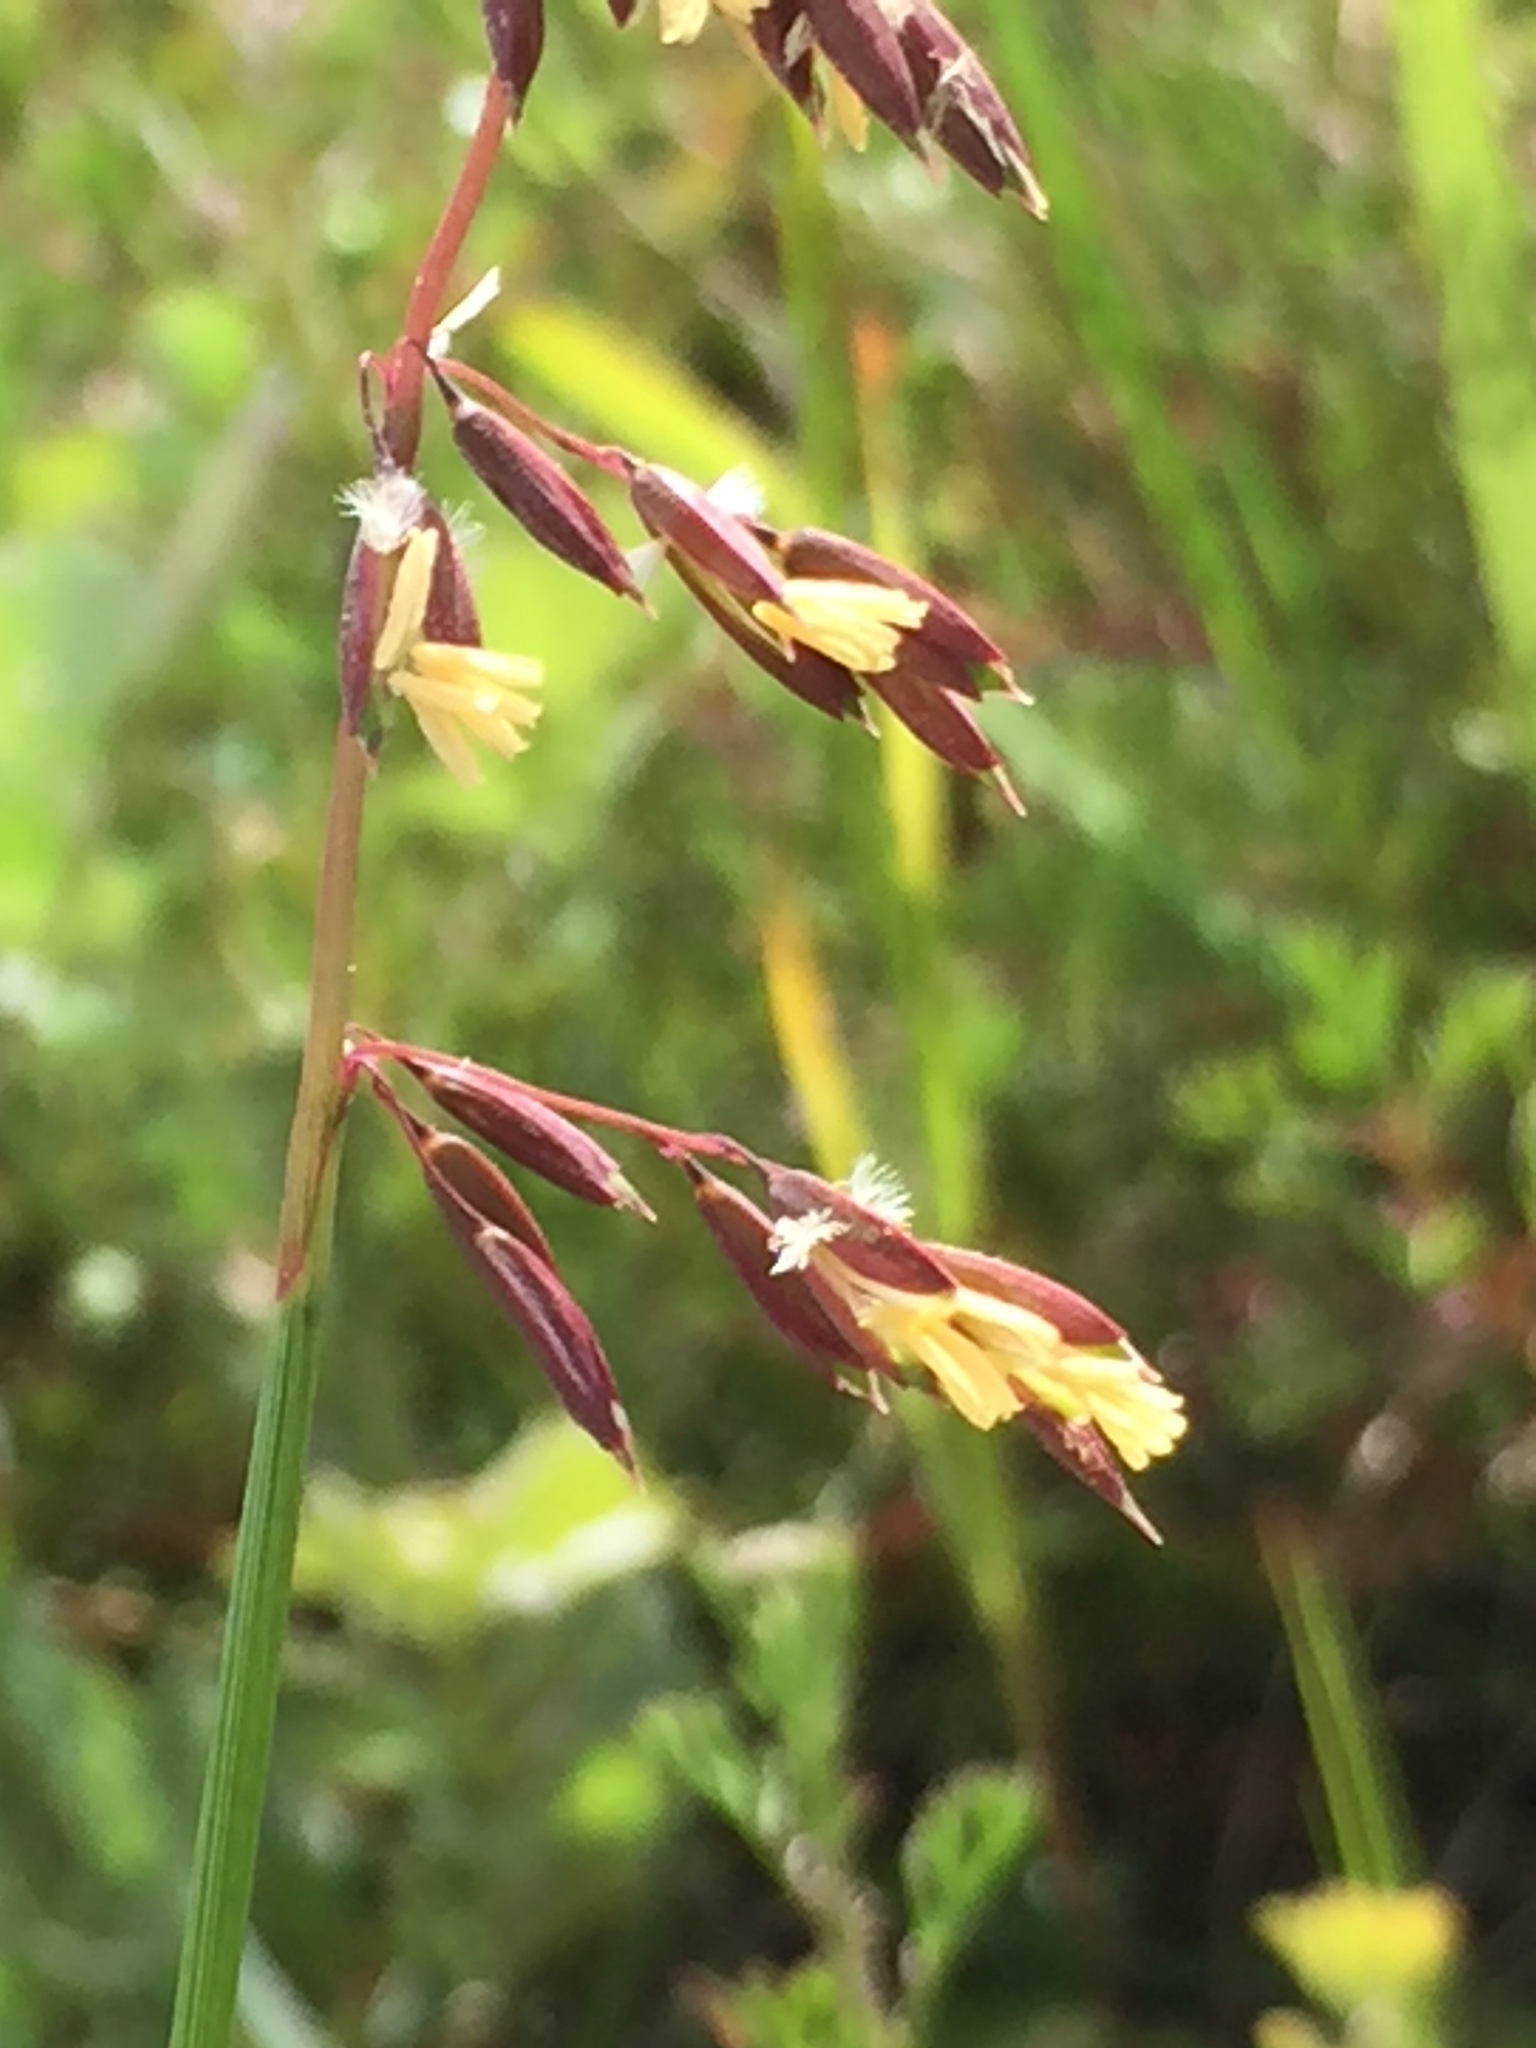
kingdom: Plantae
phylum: Tracheophyta
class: Liliopsida
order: Poales
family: Poaceae
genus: Ehrharta
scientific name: Ehrharta calycina
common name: Perennial veldtgrass
